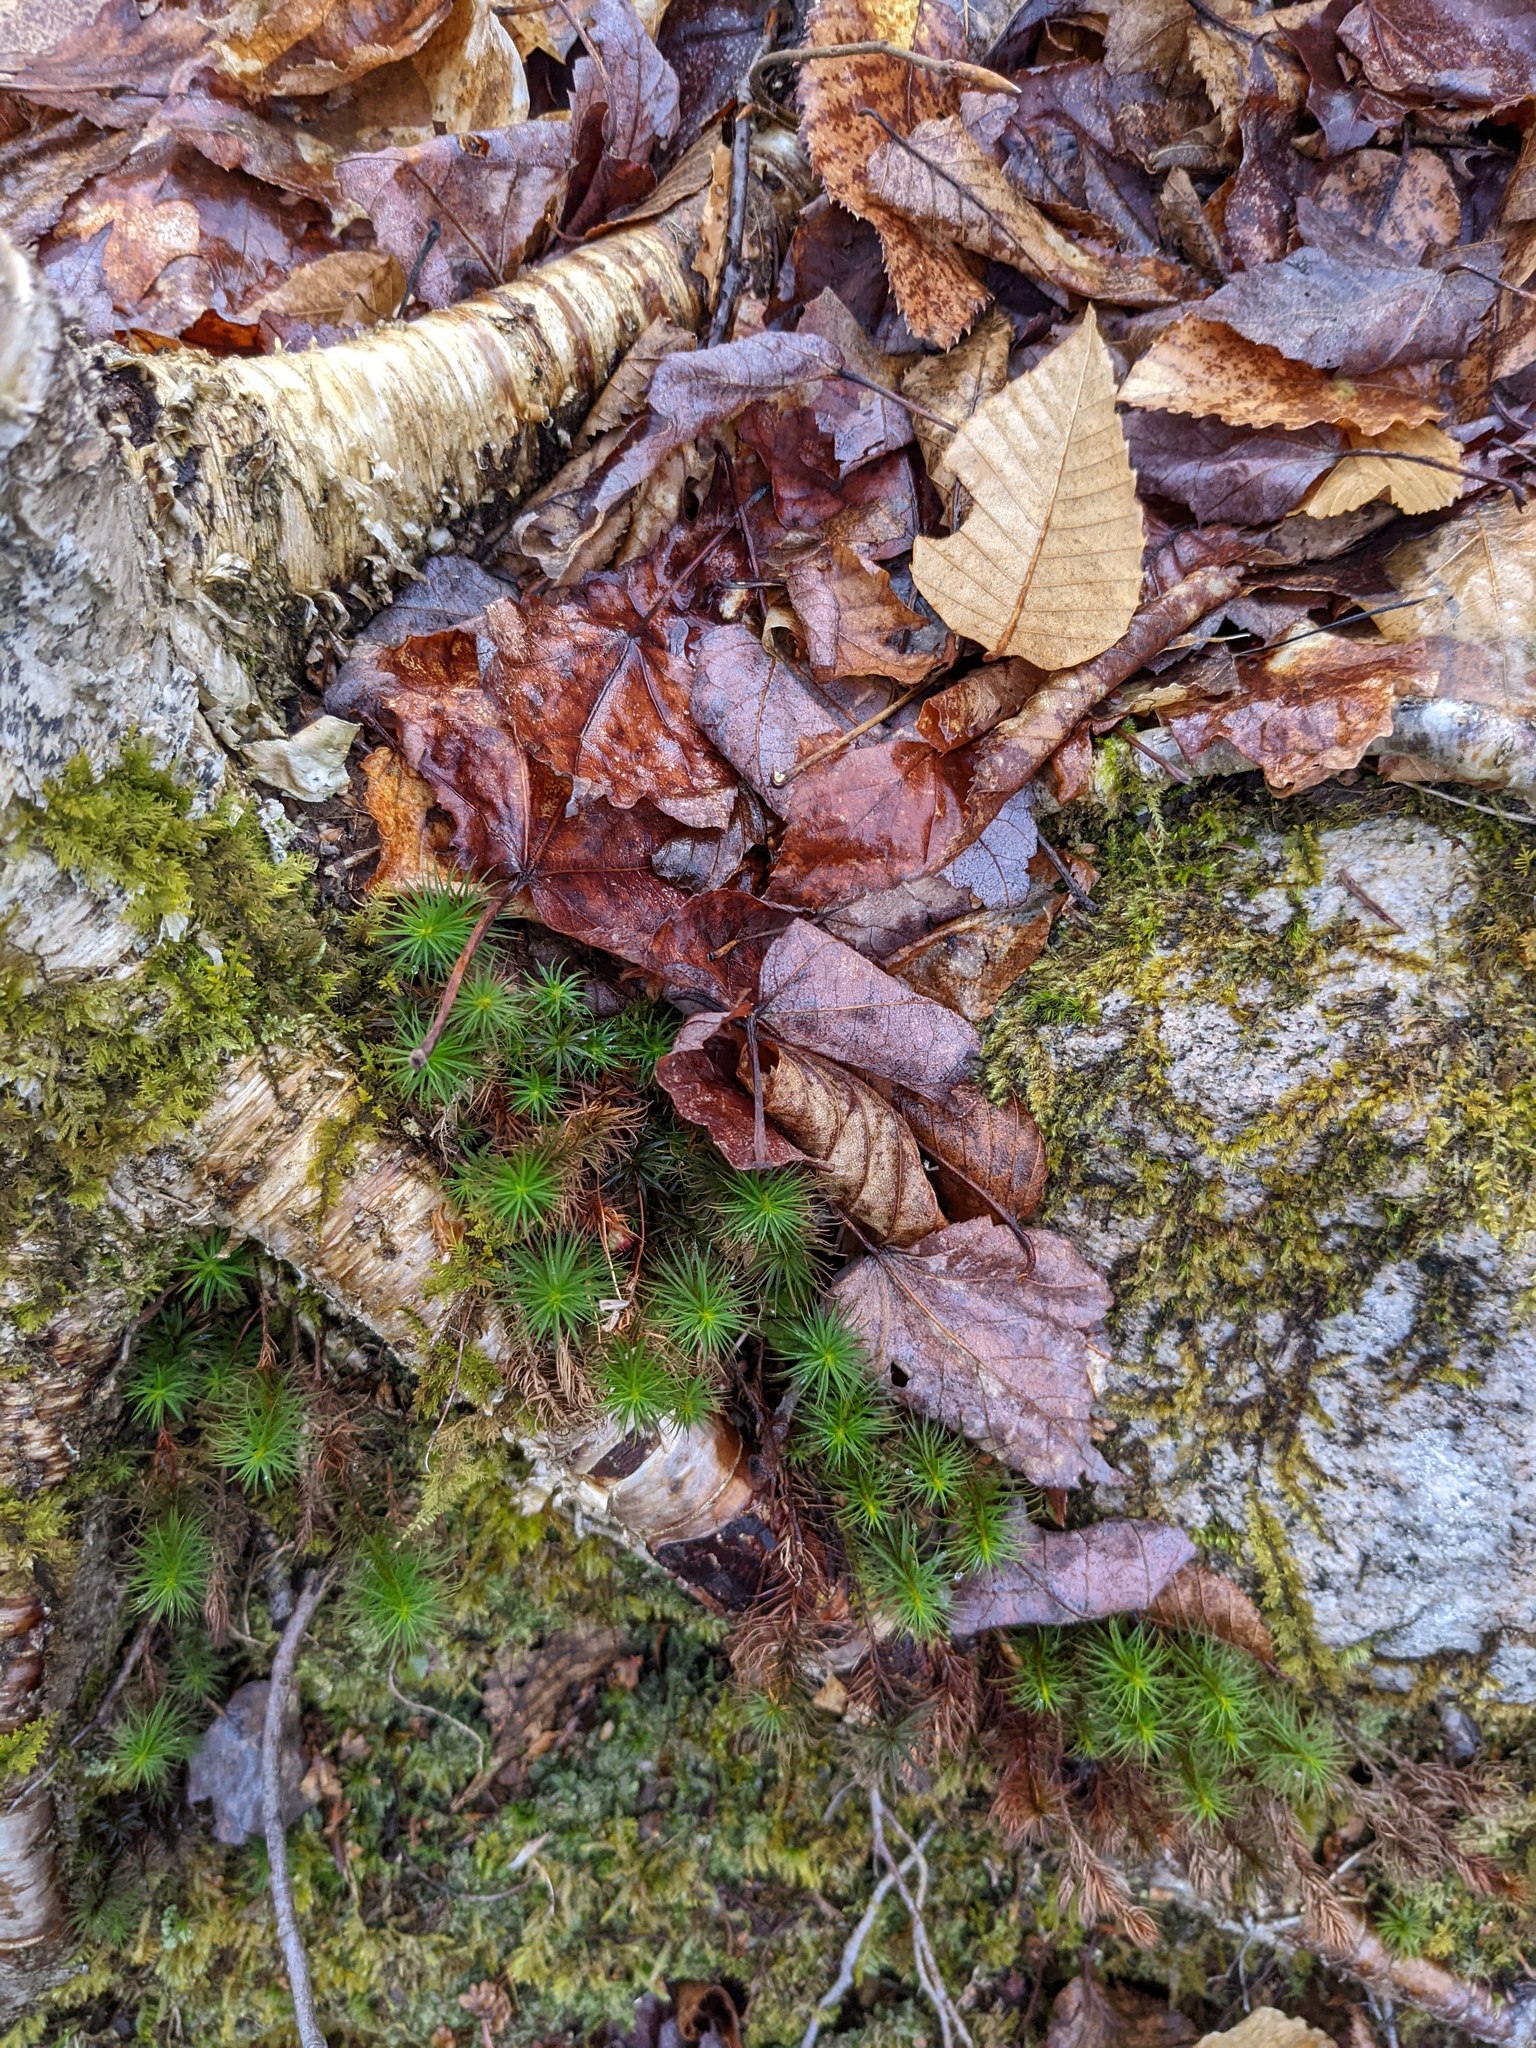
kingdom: Plantae
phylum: Tracheophyta
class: Magnoliopsida
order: Fagales
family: Fagaceae
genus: Fagus
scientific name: Fagus grandifolia
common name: American beech
